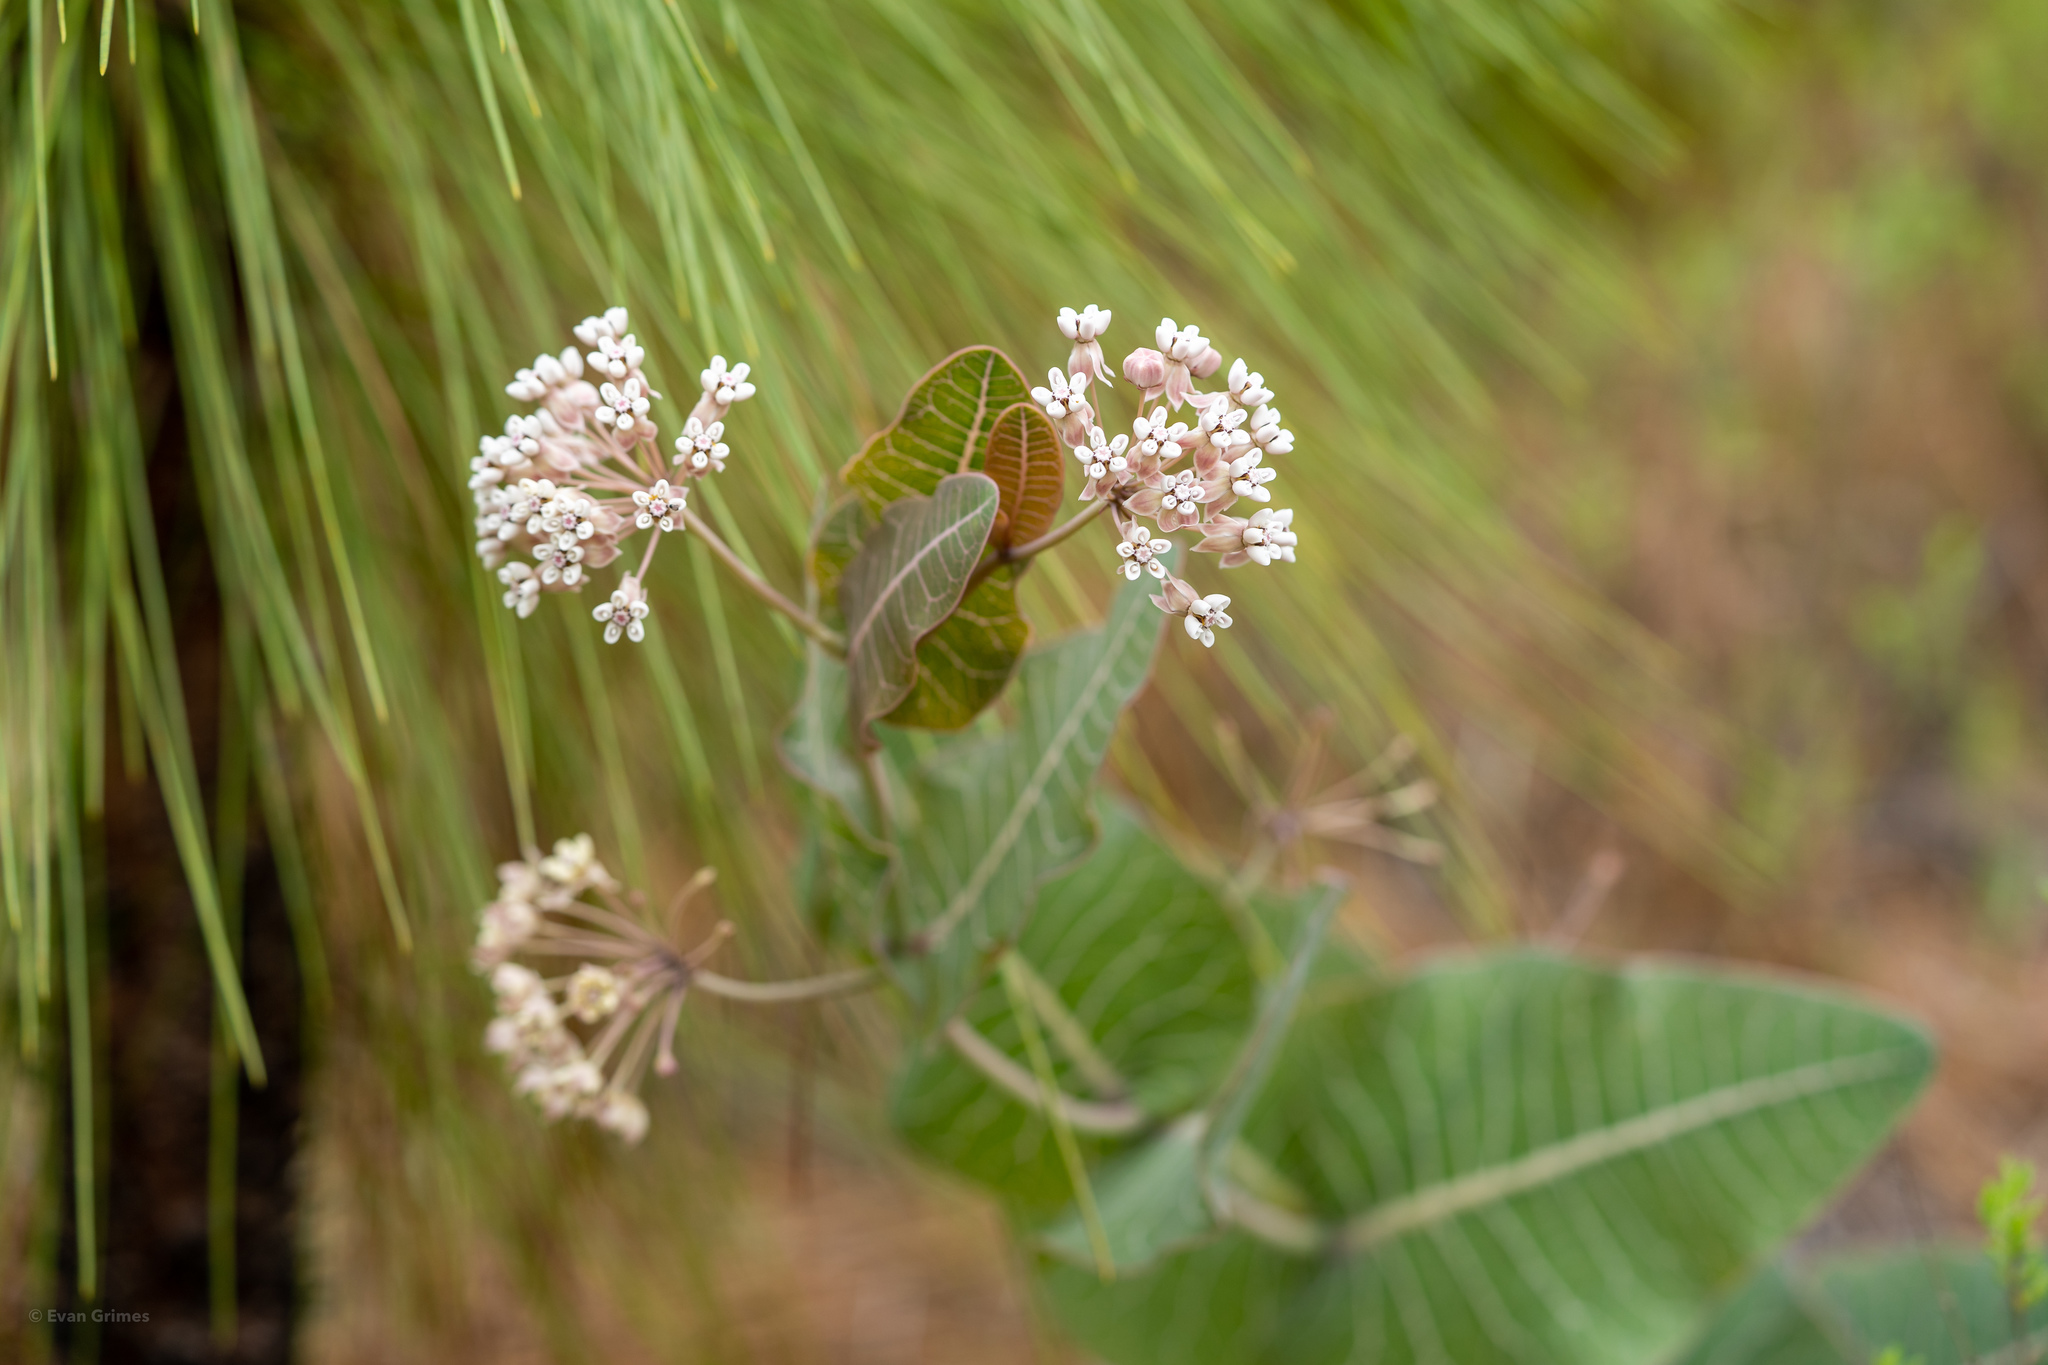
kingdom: Plantae
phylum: Tracheophyta
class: Magnoliopsida
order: Gentianales
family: Apocynaceae
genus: Asclepias
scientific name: Asclepias humistrata
